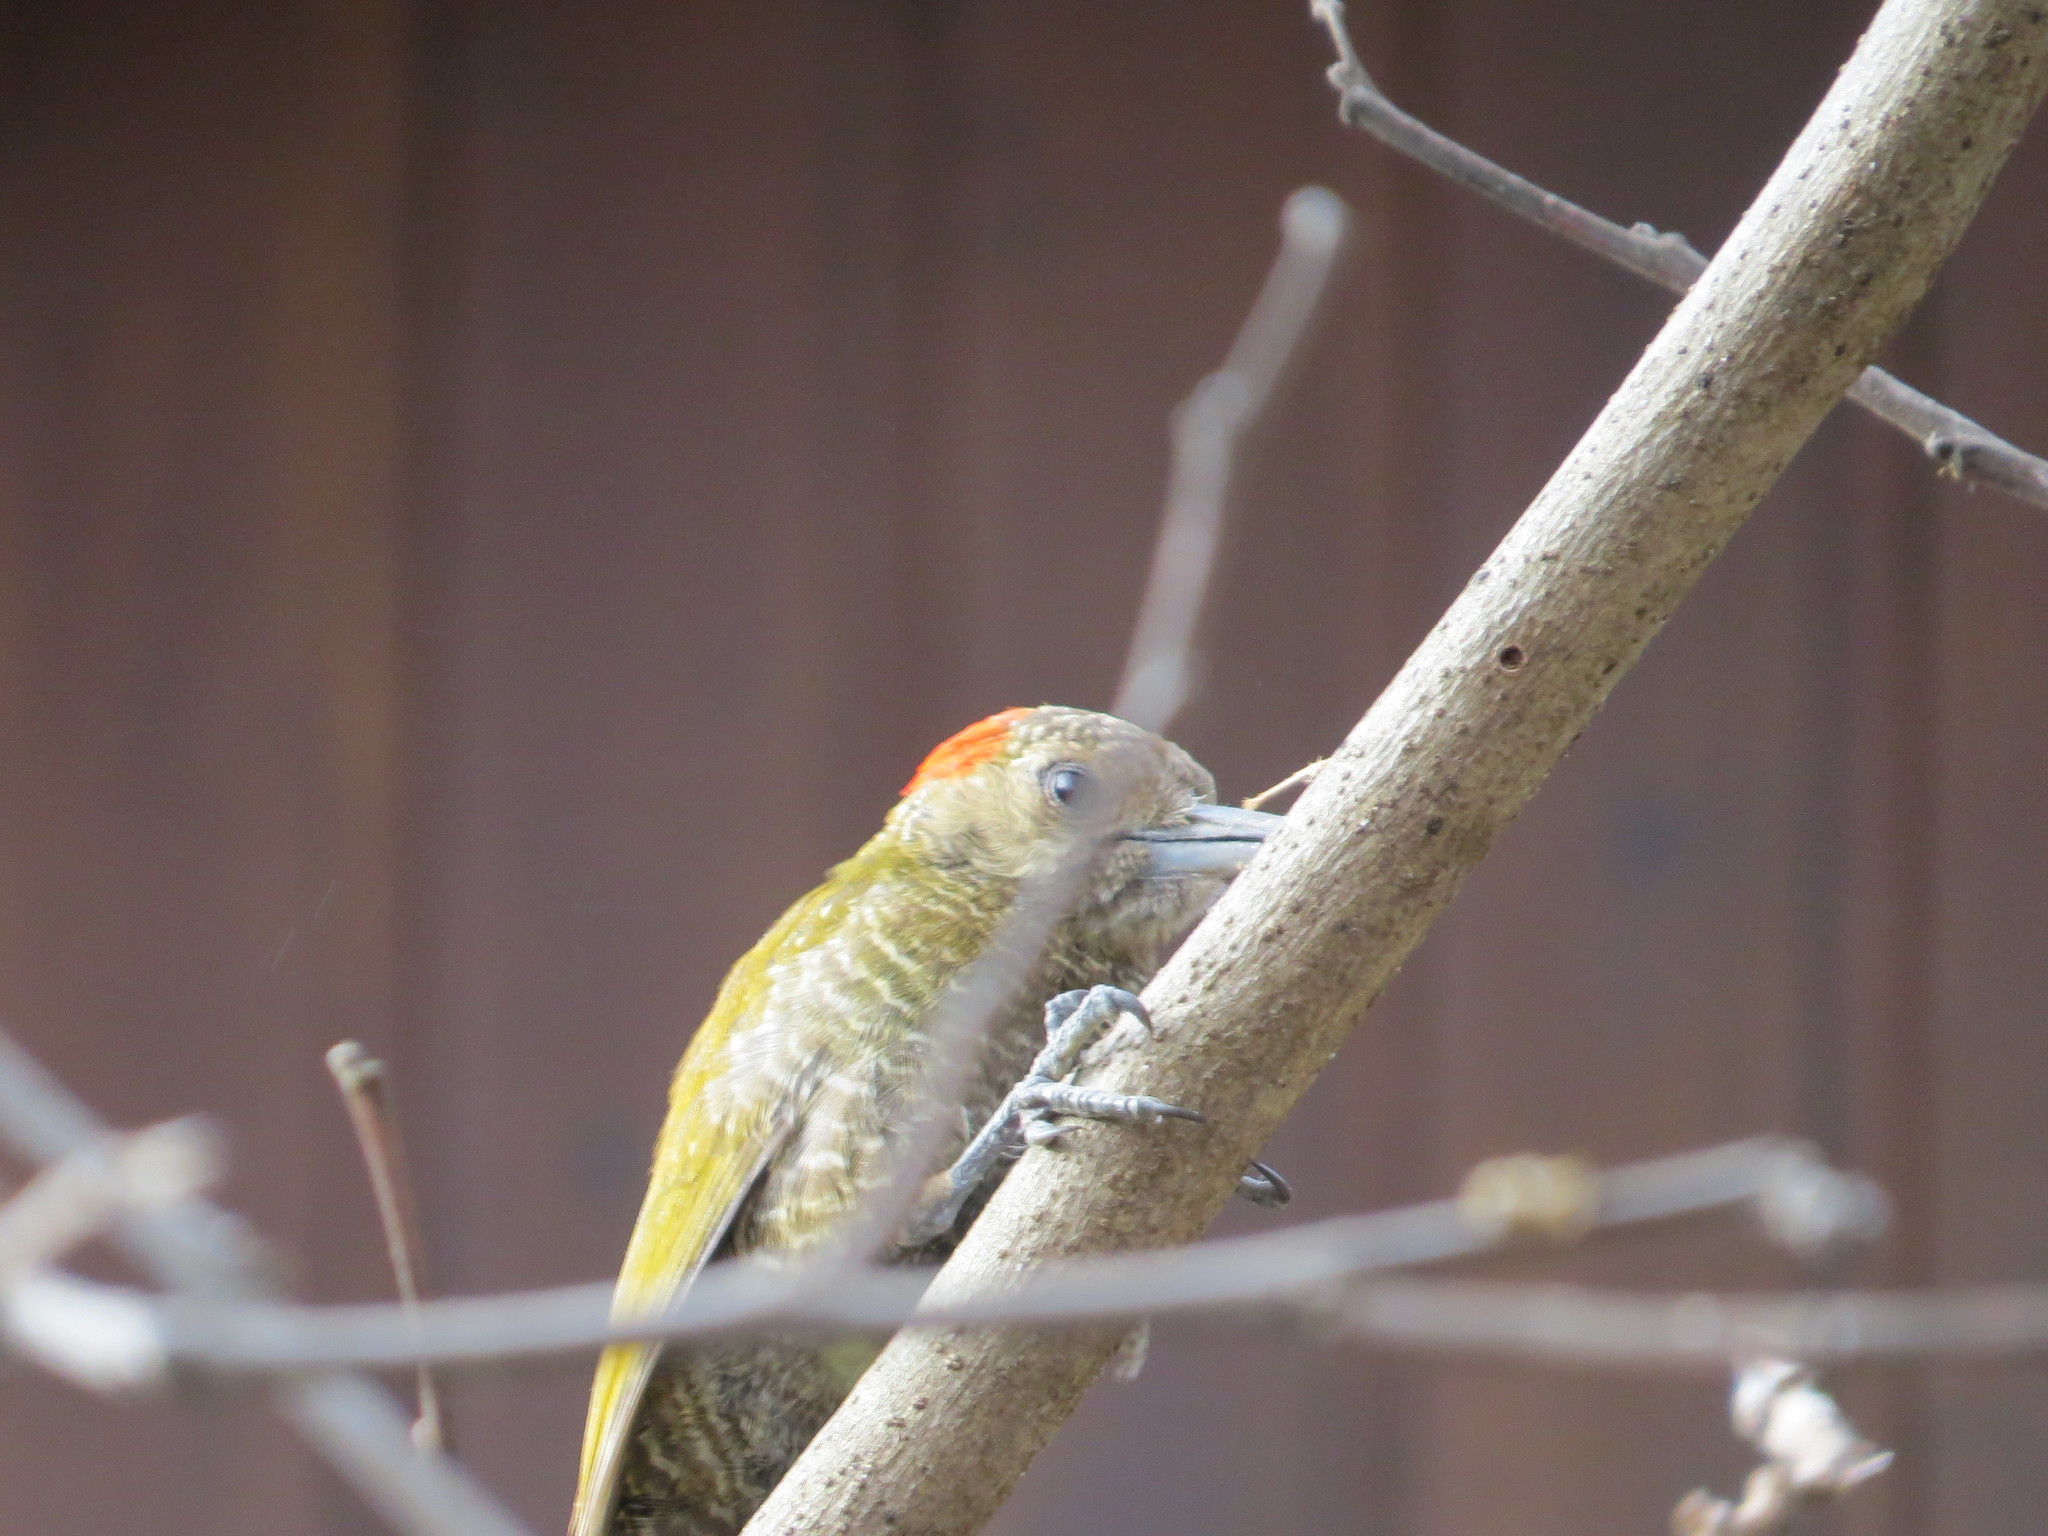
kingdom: Animalia
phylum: Chordata
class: Aves
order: Piciformes
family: Picidae
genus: Veniliornis
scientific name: Veniliornis passerinus
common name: Little woodpecker
